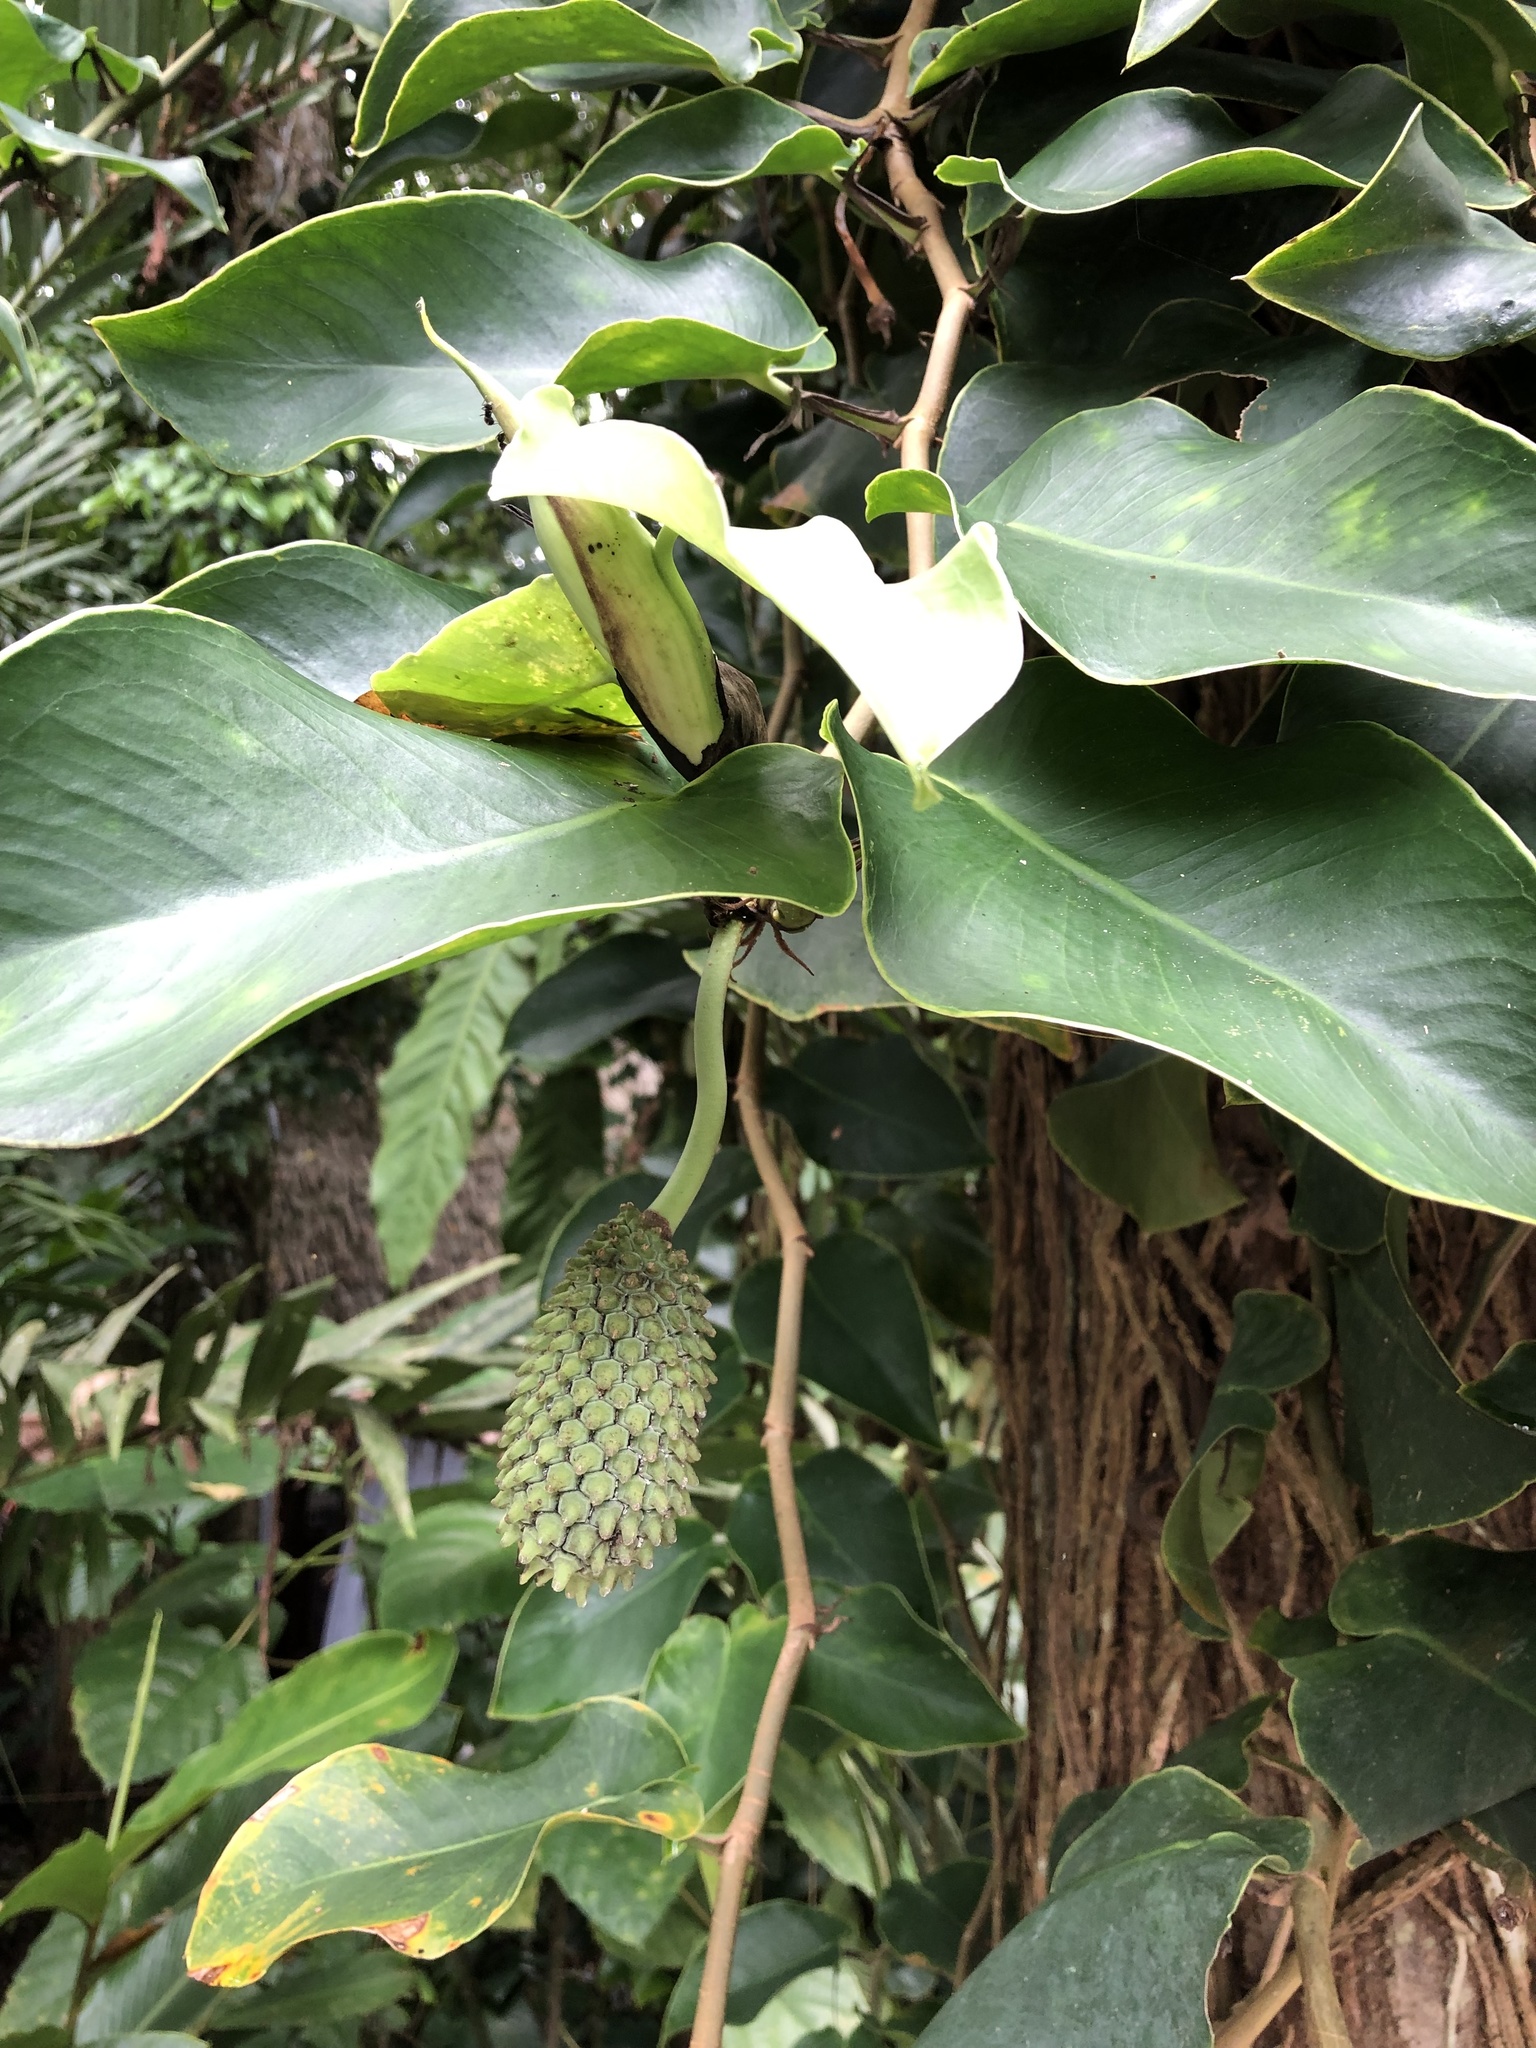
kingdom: Plantae
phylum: Tracheophyta
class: Liliopsida
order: Alismatales
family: Araceae
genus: Monstera
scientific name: Monstera tuberculata
